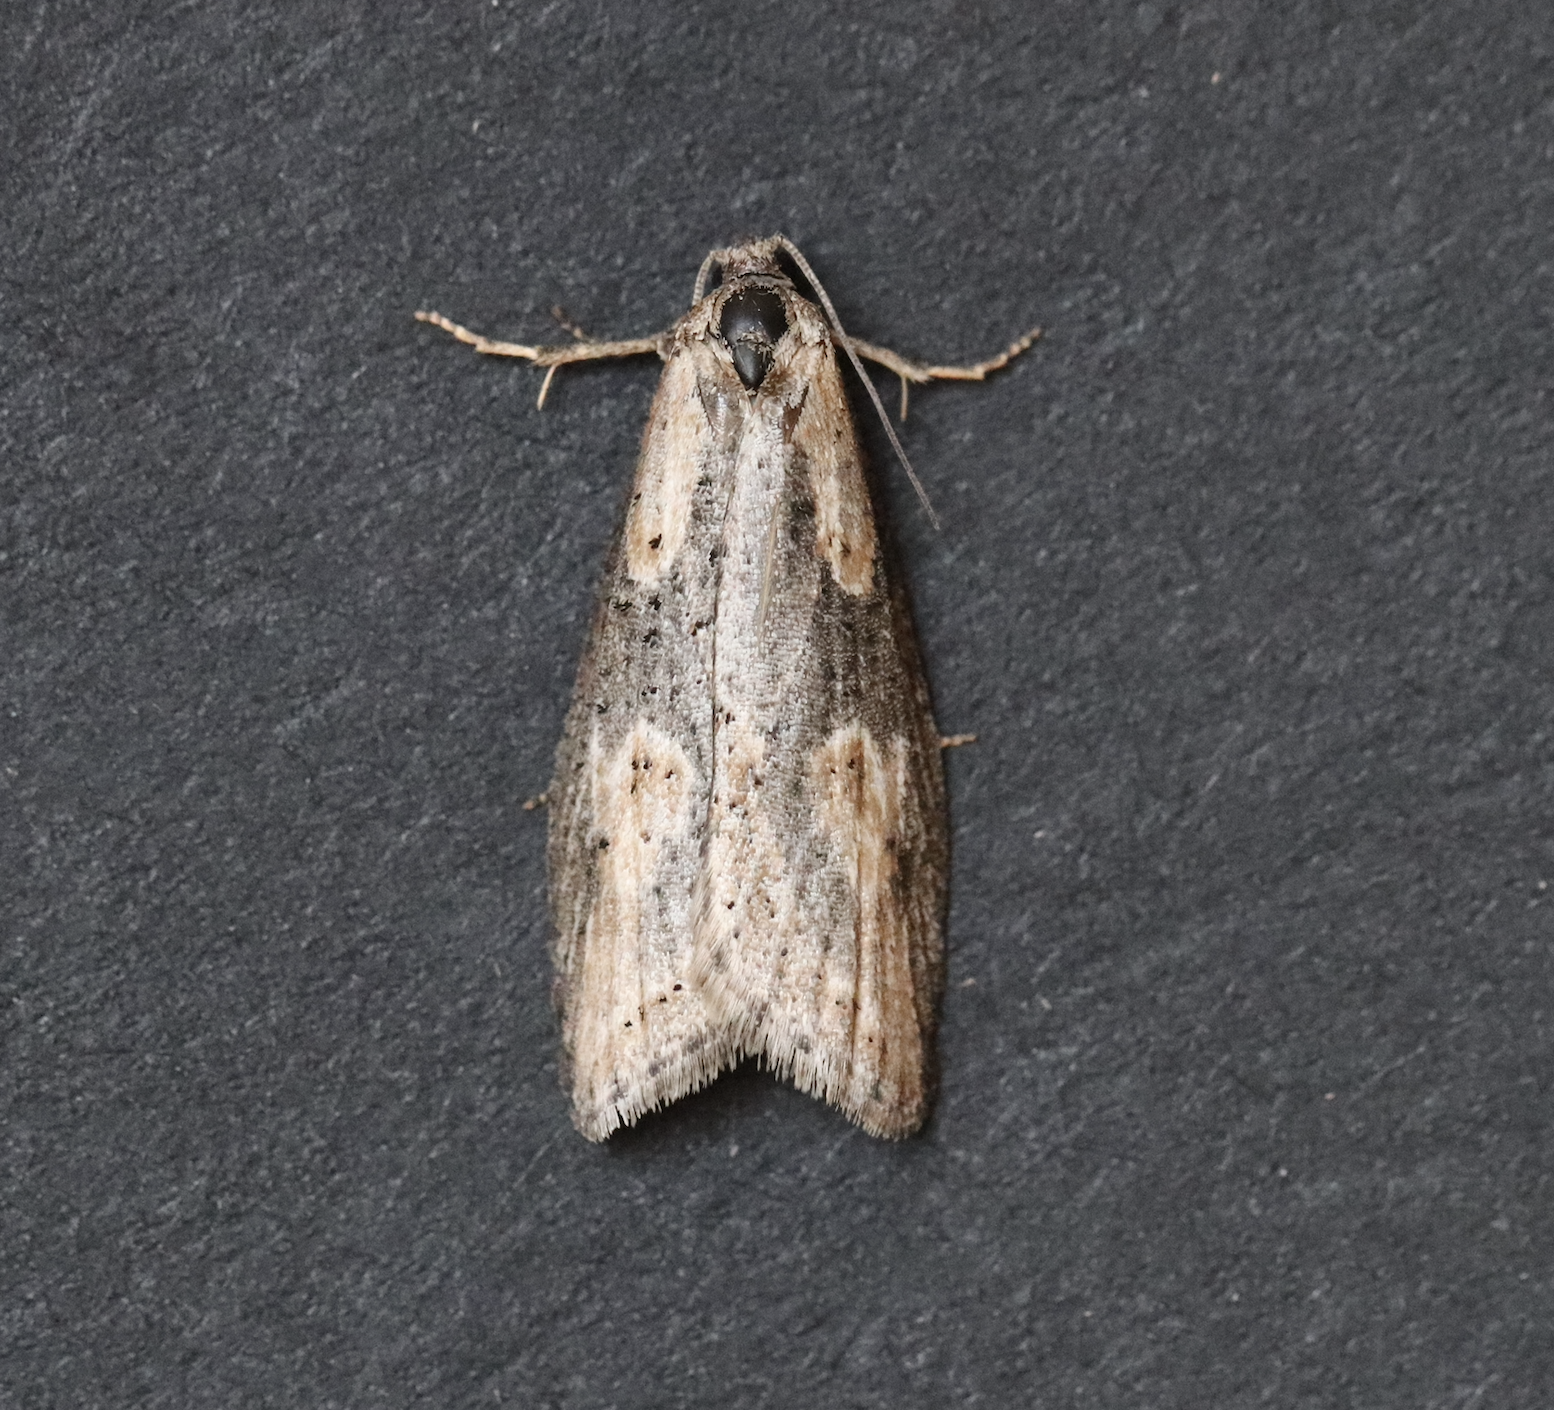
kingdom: Animalia
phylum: Arthropoda
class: Insecta
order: Lepidoptera
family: Tortricidae
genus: Doloploca
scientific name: Doloploca punctulana
